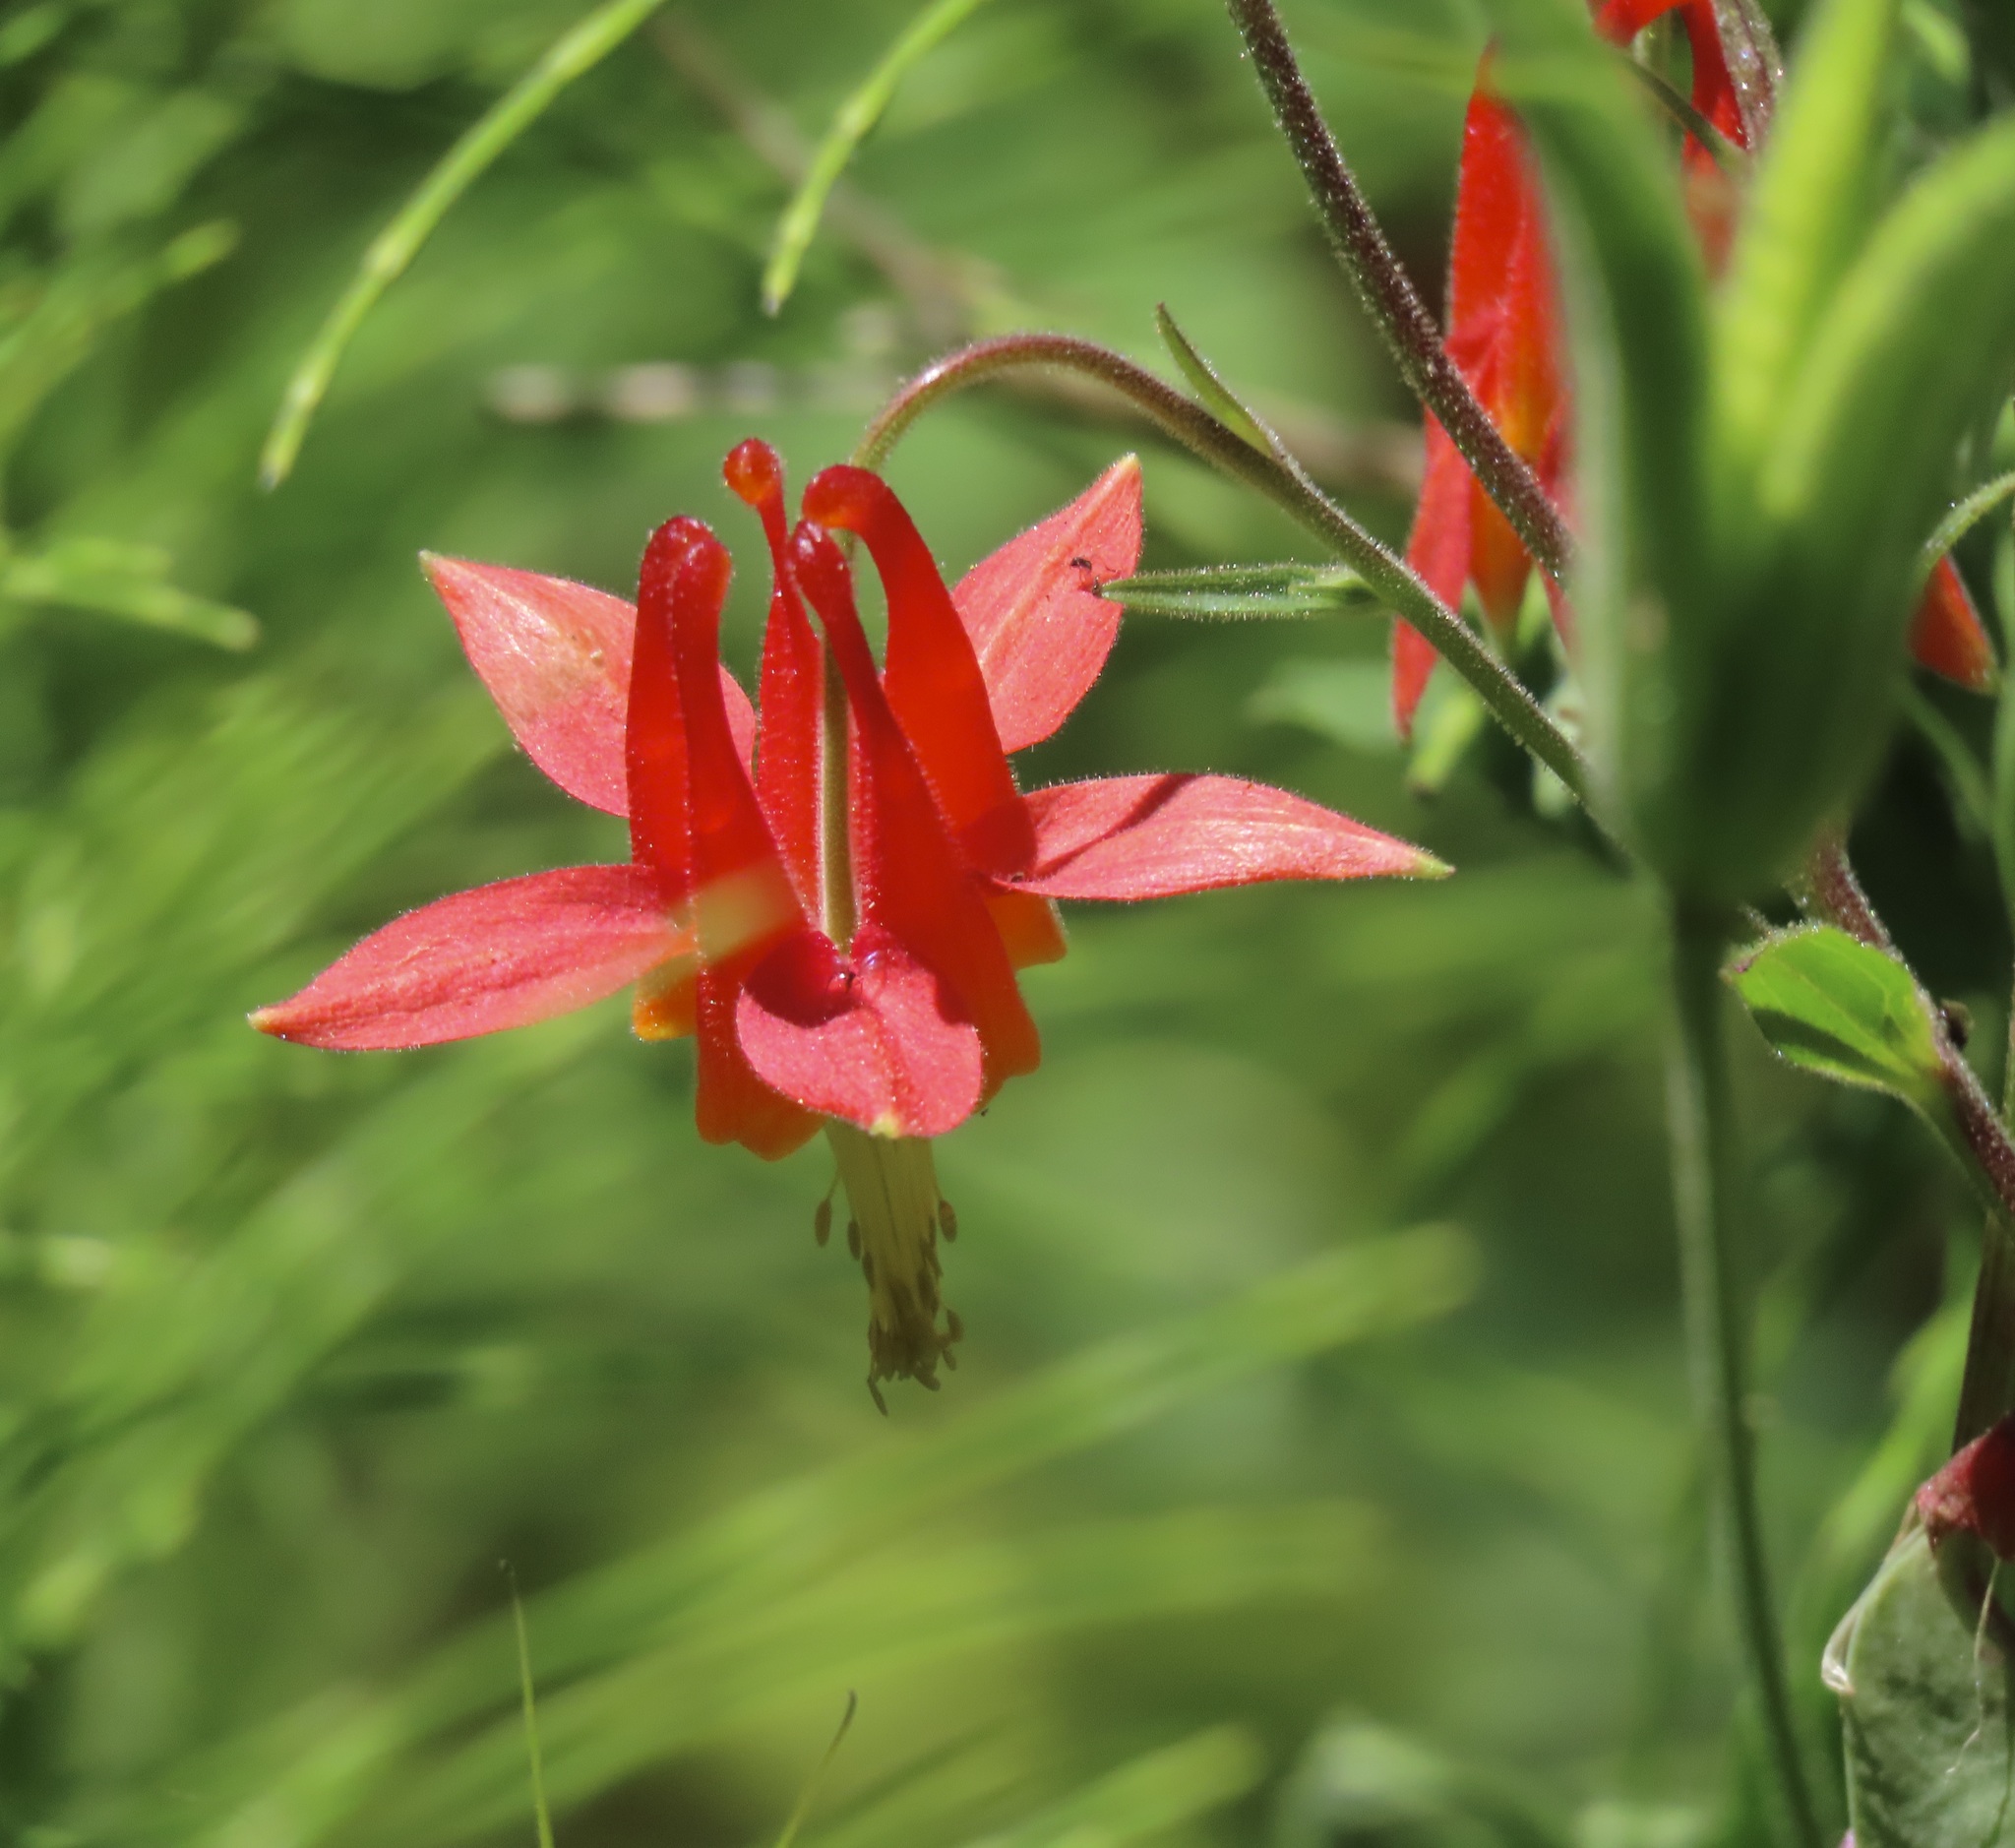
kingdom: Plantae
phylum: Tracheophyta
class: Magnoliopsida
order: Ranunculales
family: Ranunculaceae
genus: Aquilegia
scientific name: Aquilegia formosa
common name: Sitka columbine
